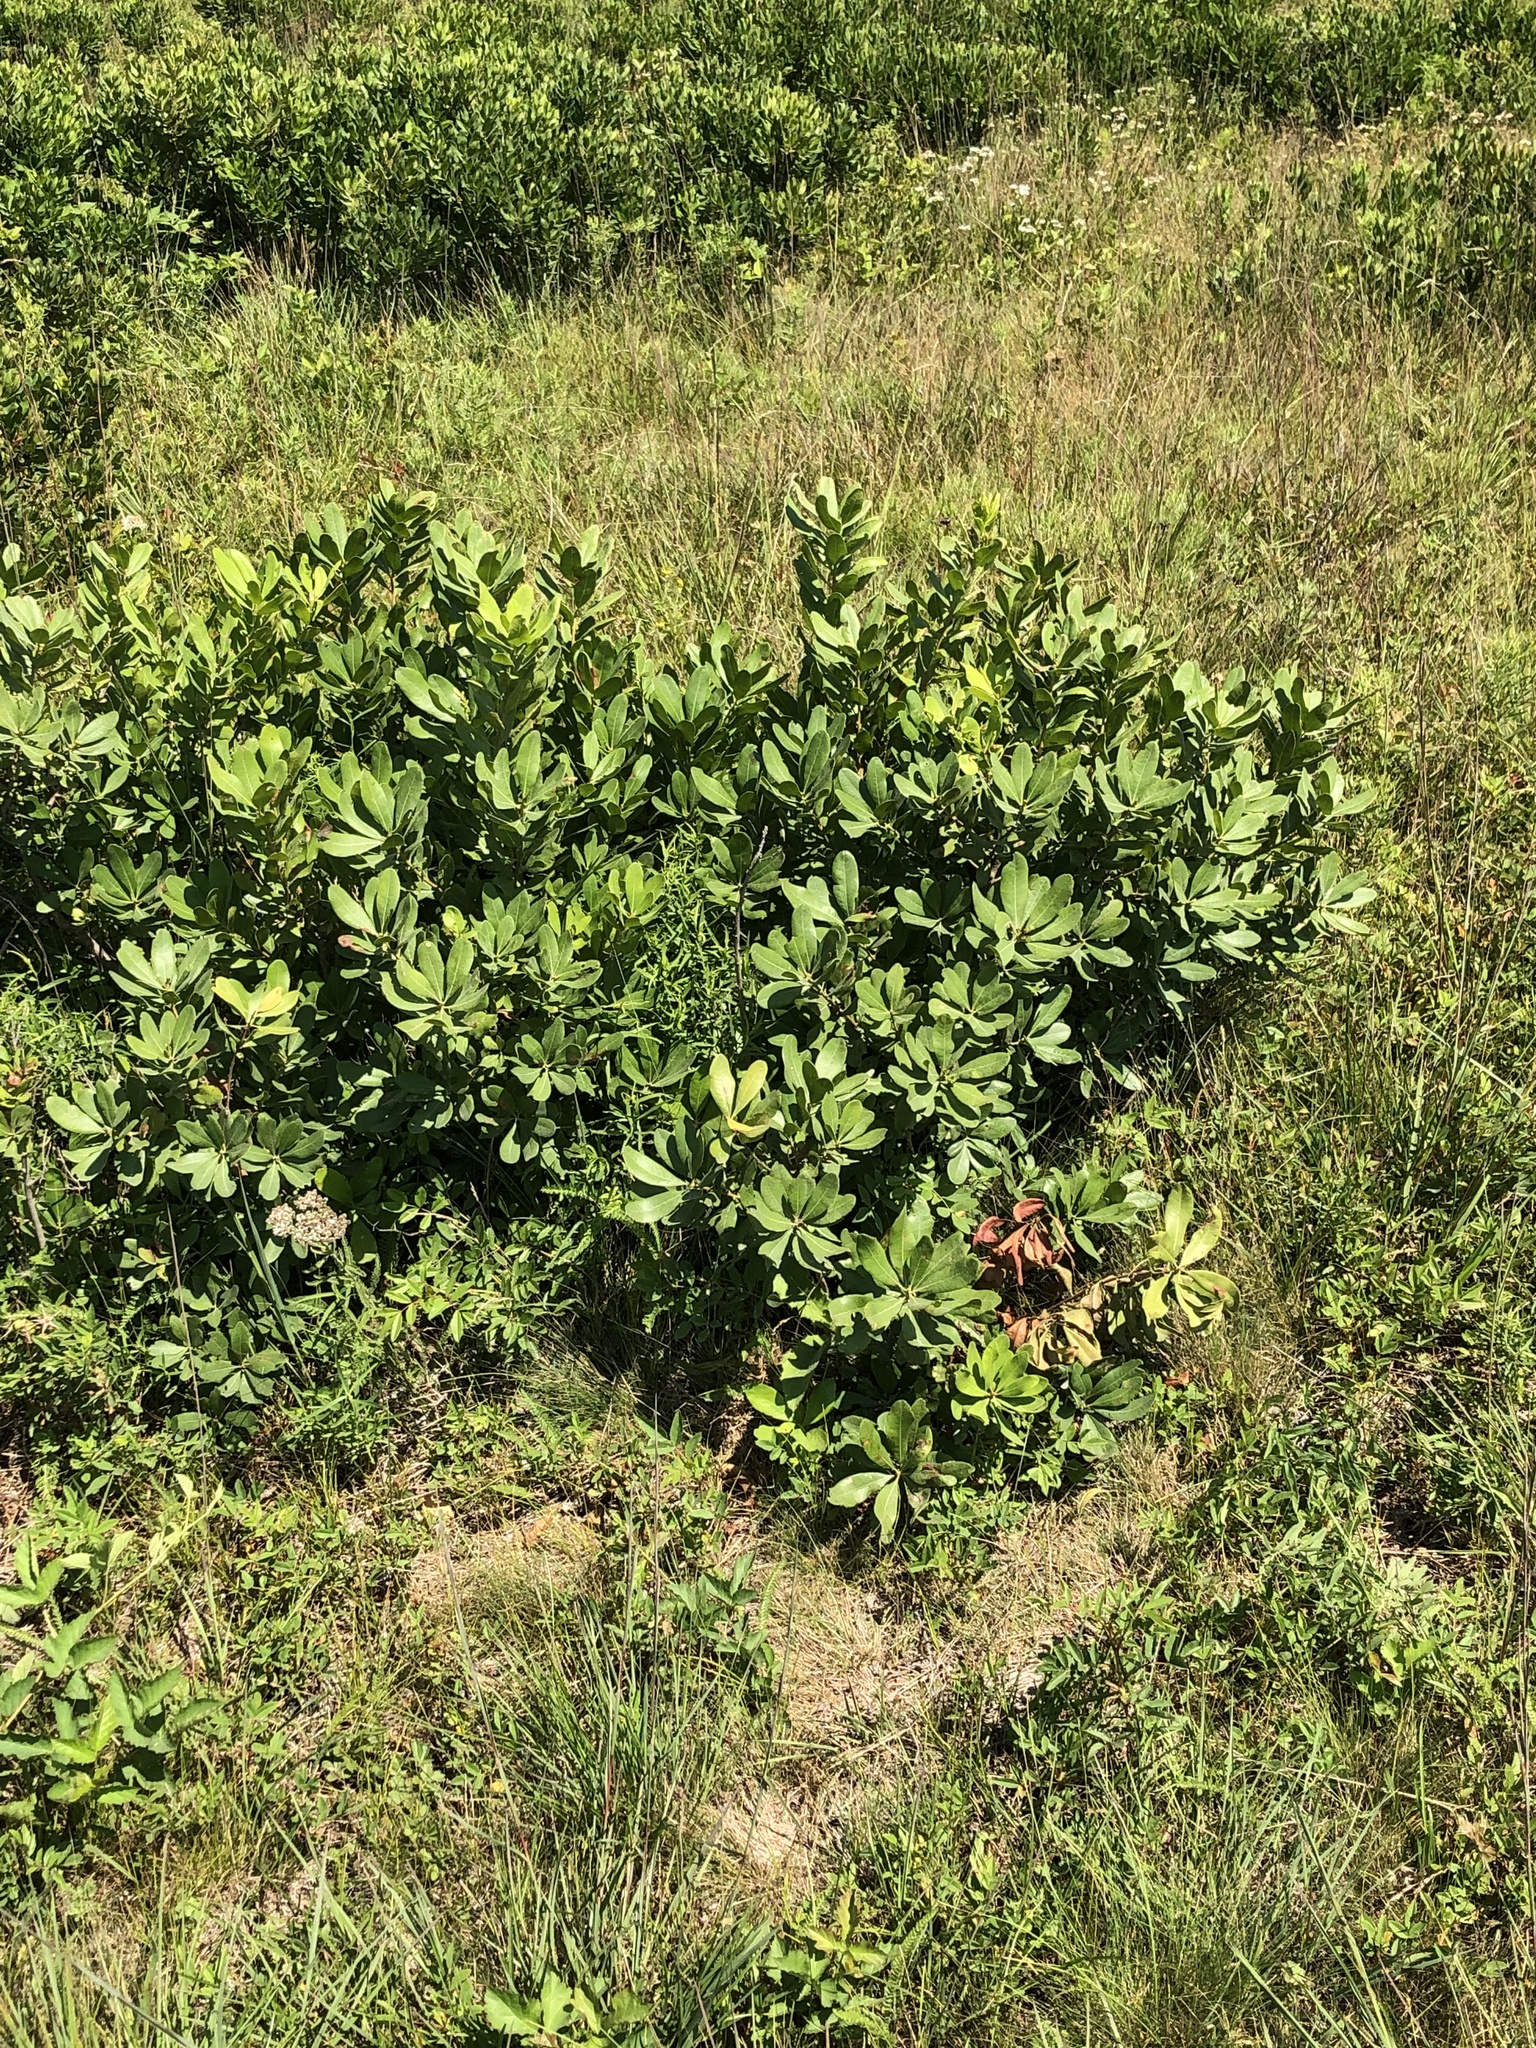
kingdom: Plantae
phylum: Tracheophyta
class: Magnoliopsida
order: Fagales
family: Myricaceae
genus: Morella
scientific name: Morella pensylvanica
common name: Northern bayberry
